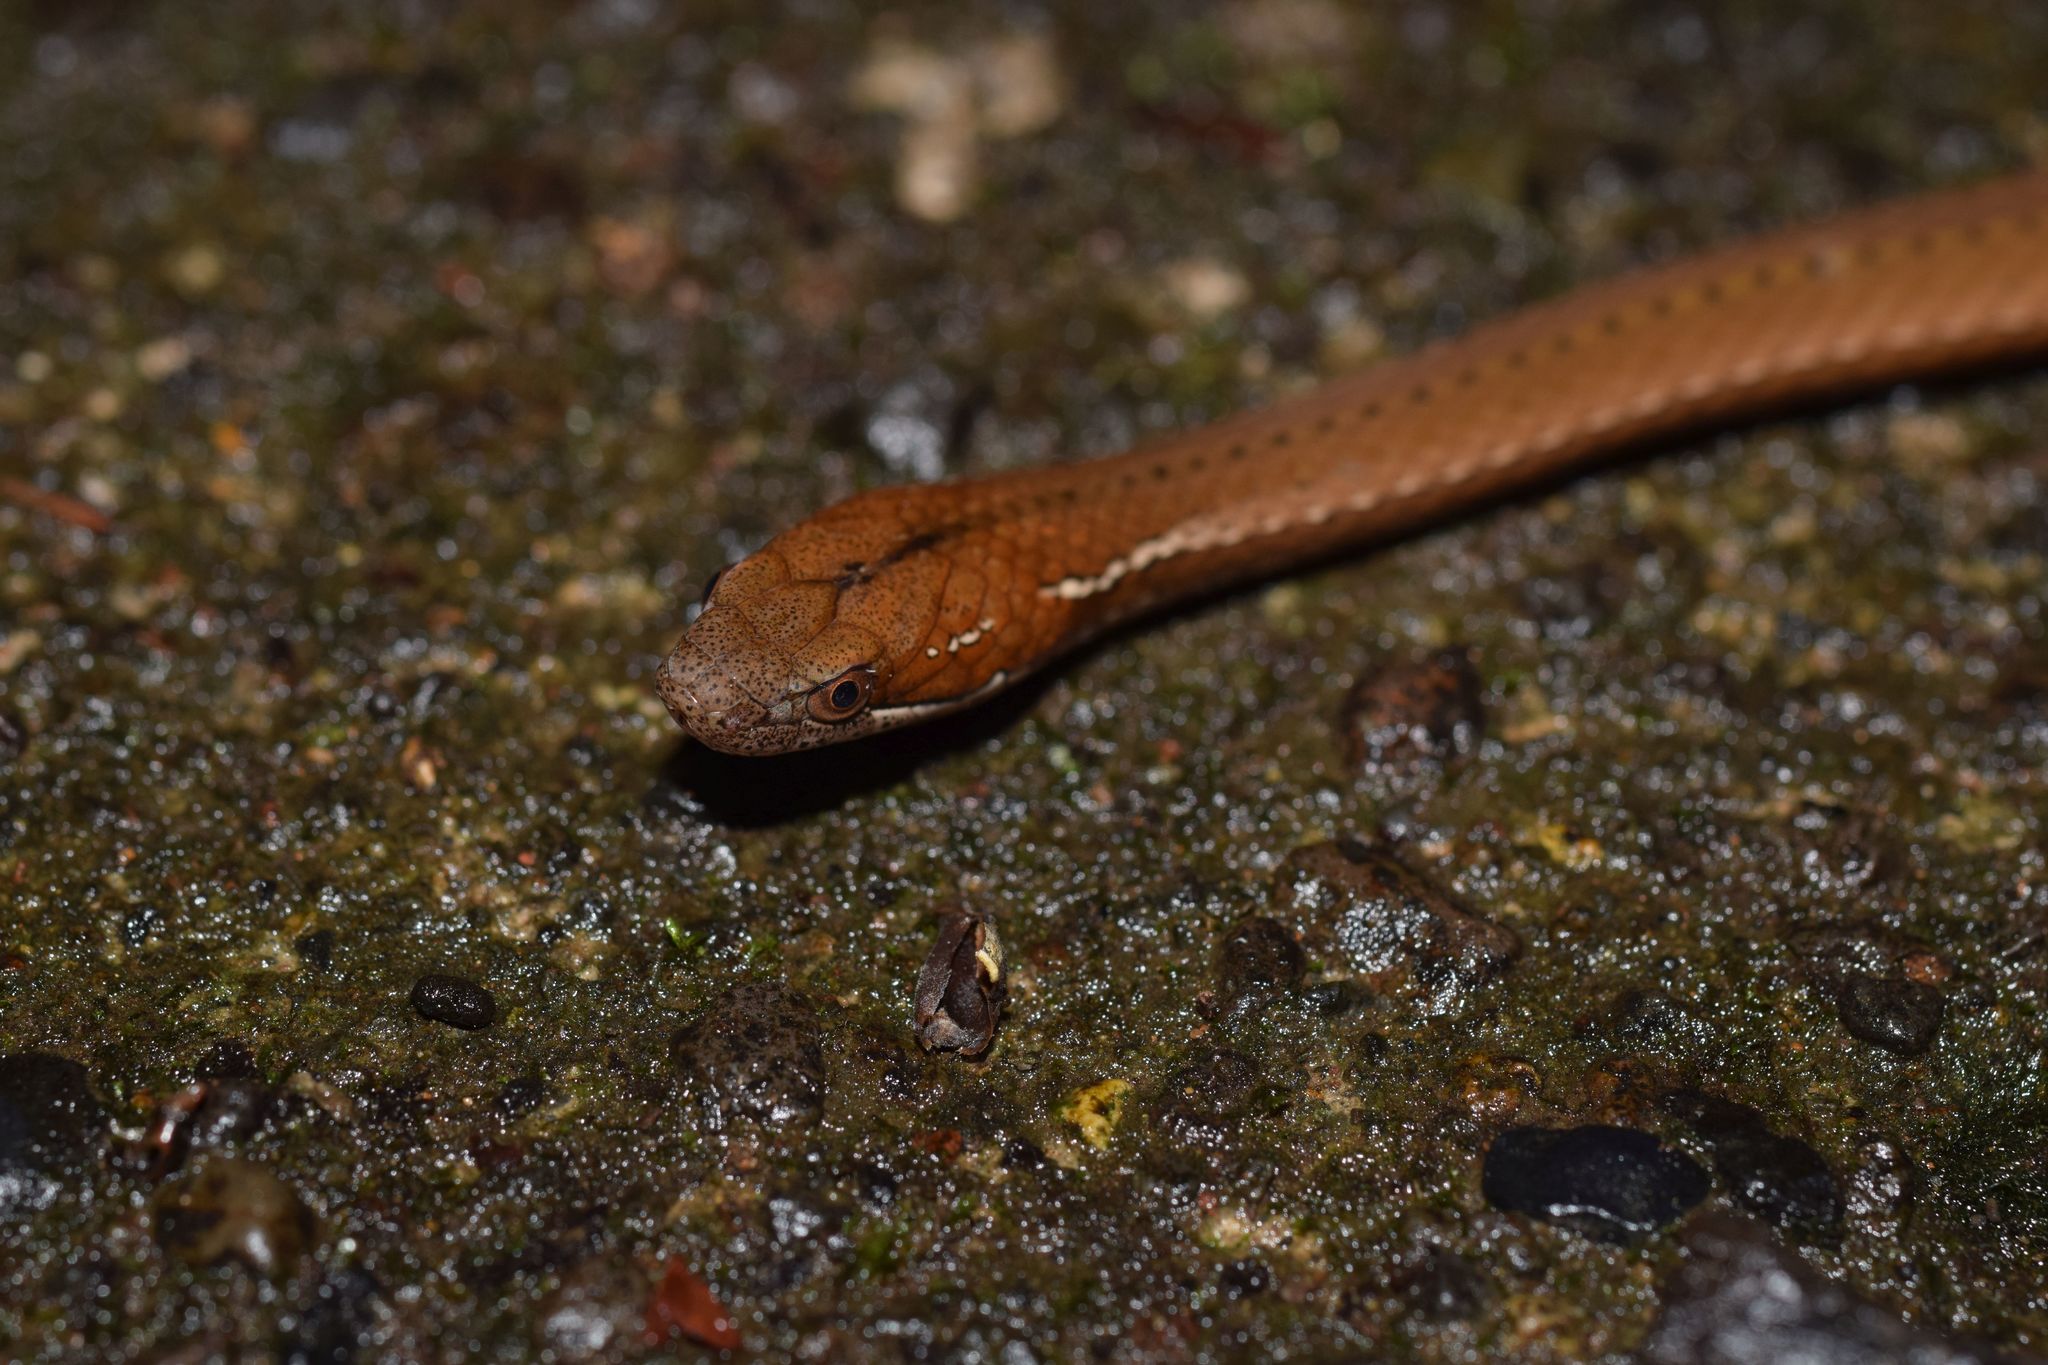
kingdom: Animalia
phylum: Chordata
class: Squamata
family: Colubridae
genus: Coniophanes
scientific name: Coniophanes fissidens
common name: Yellowbelly snake
